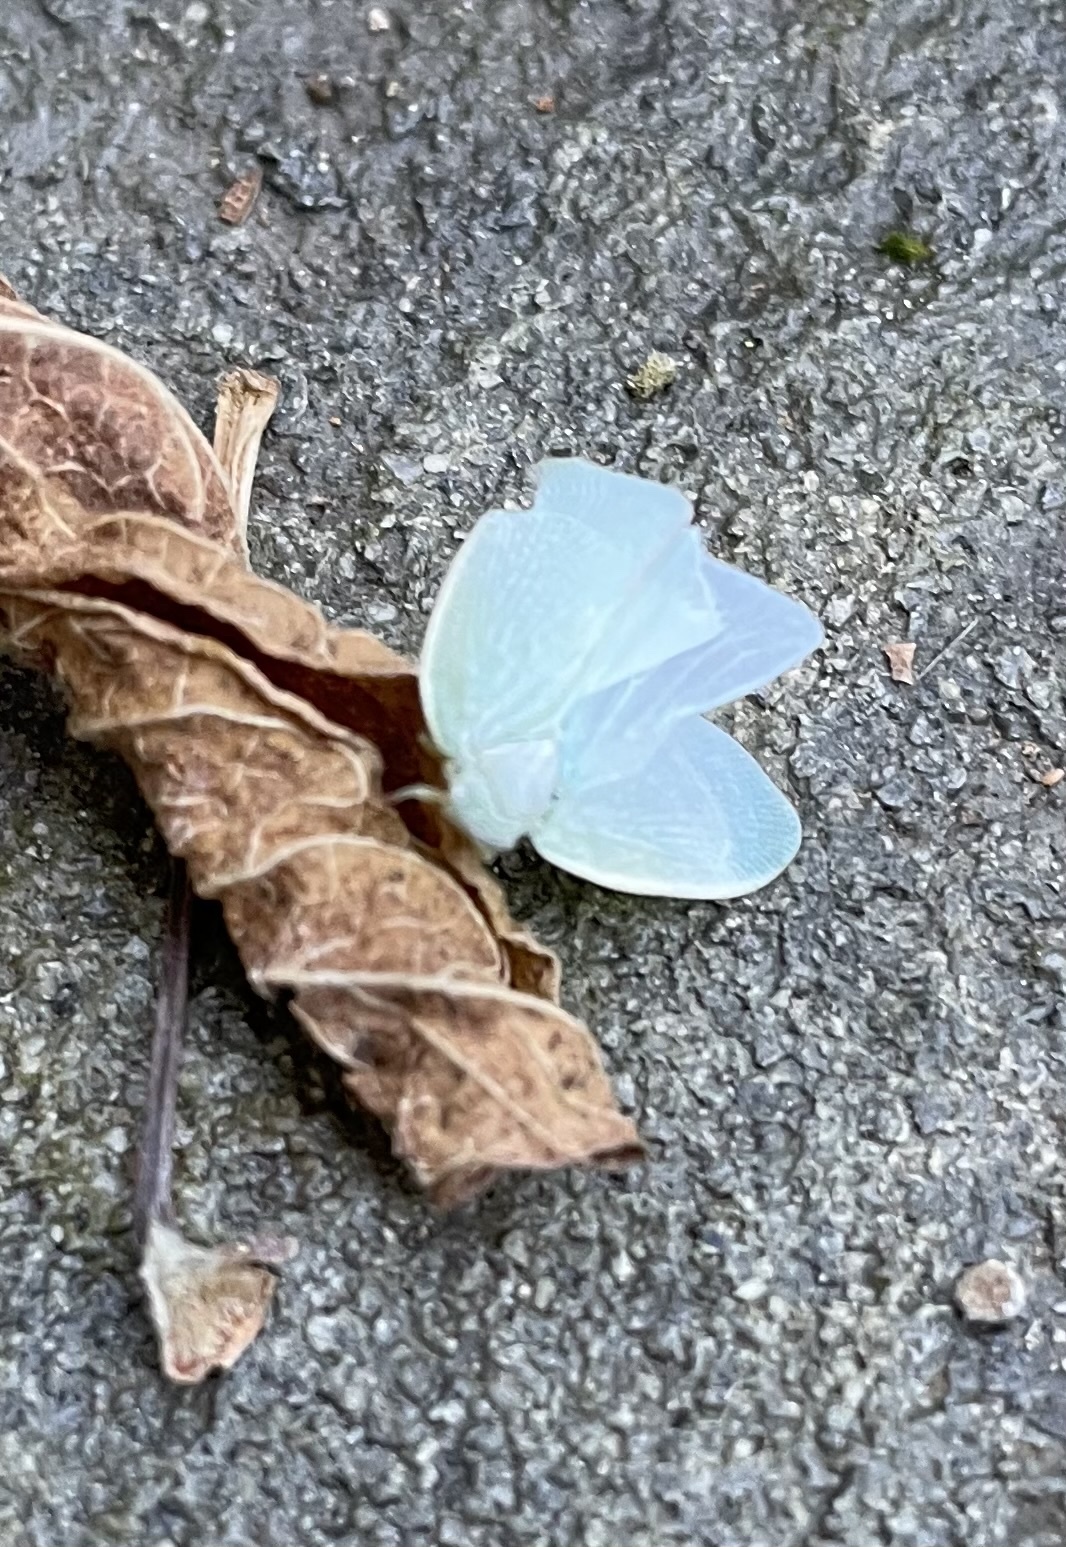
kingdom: Animalia
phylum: Arthropoda
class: Insecta
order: Hemiptera
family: Flatidae
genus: Flatormenis
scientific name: Flatormenis proxima
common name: Northern flatid planthopper
